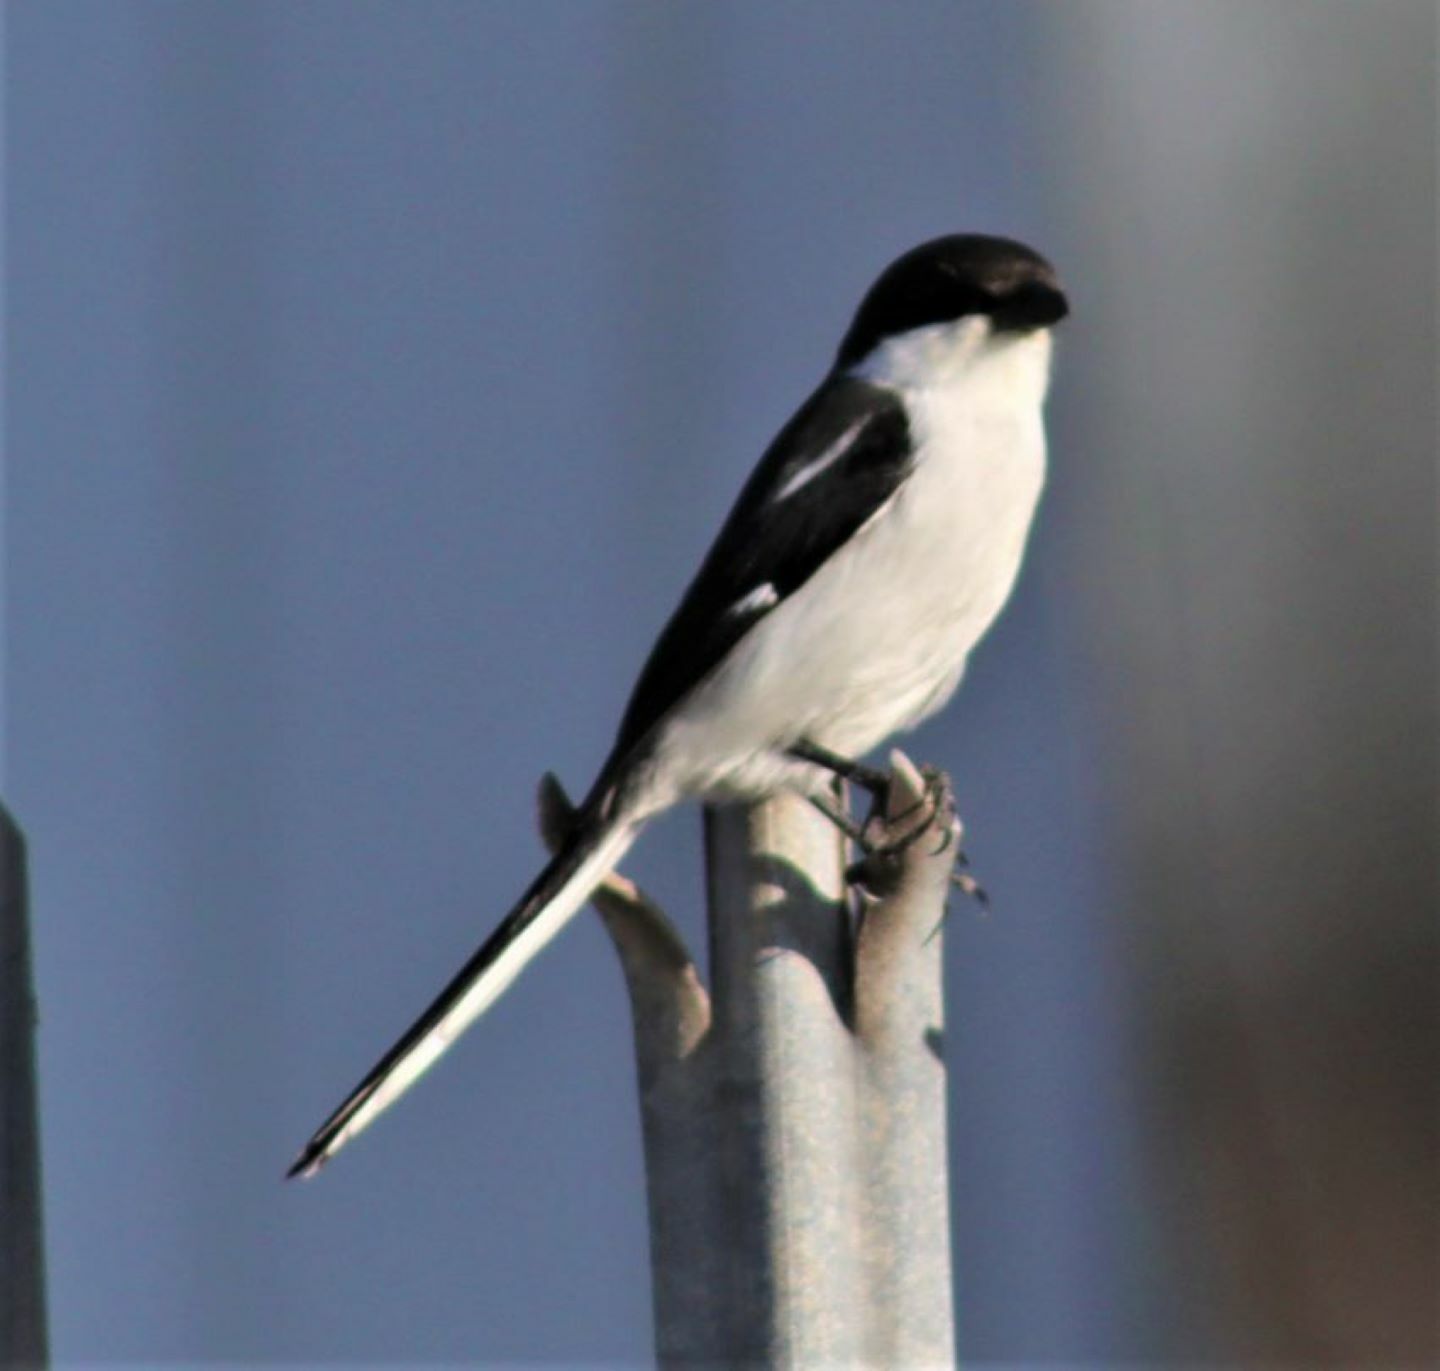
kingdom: Animalia
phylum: Chordata
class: Aves
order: Passeriformes
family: Laniidae
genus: Lanius
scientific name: Lanius collaris
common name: Southern fiscal
